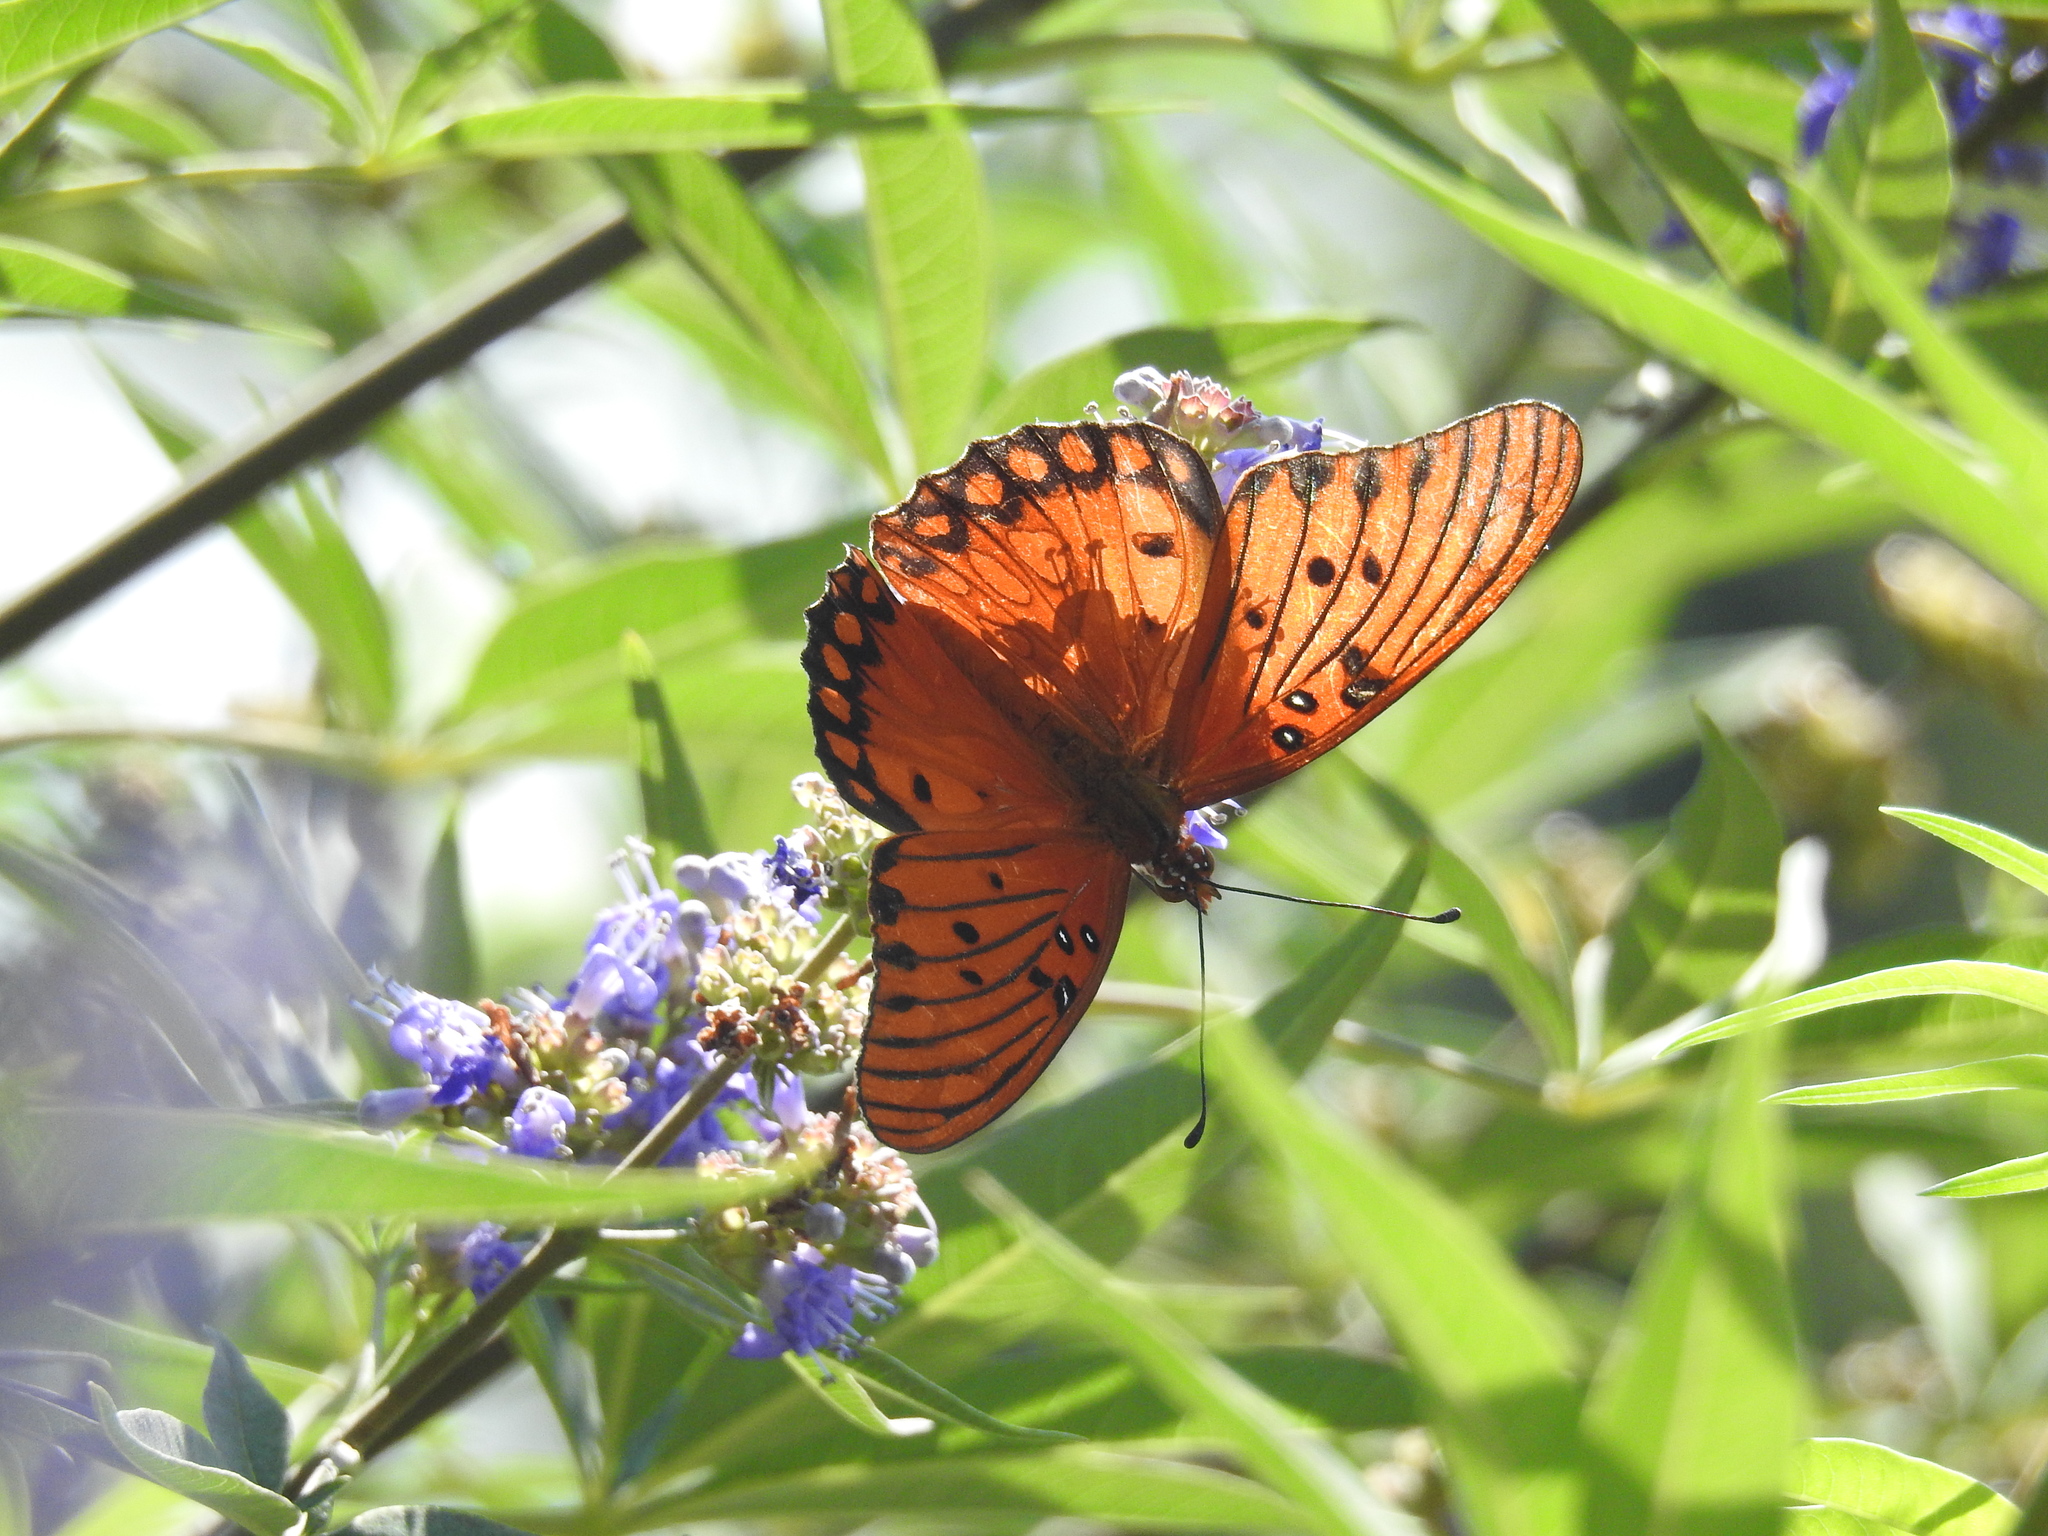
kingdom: Animalia
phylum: Arthropoda
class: Insecta
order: Lepidoptera
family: Nymphalidae
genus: Dione
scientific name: Dione vanillae
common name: Gulf fritillary
